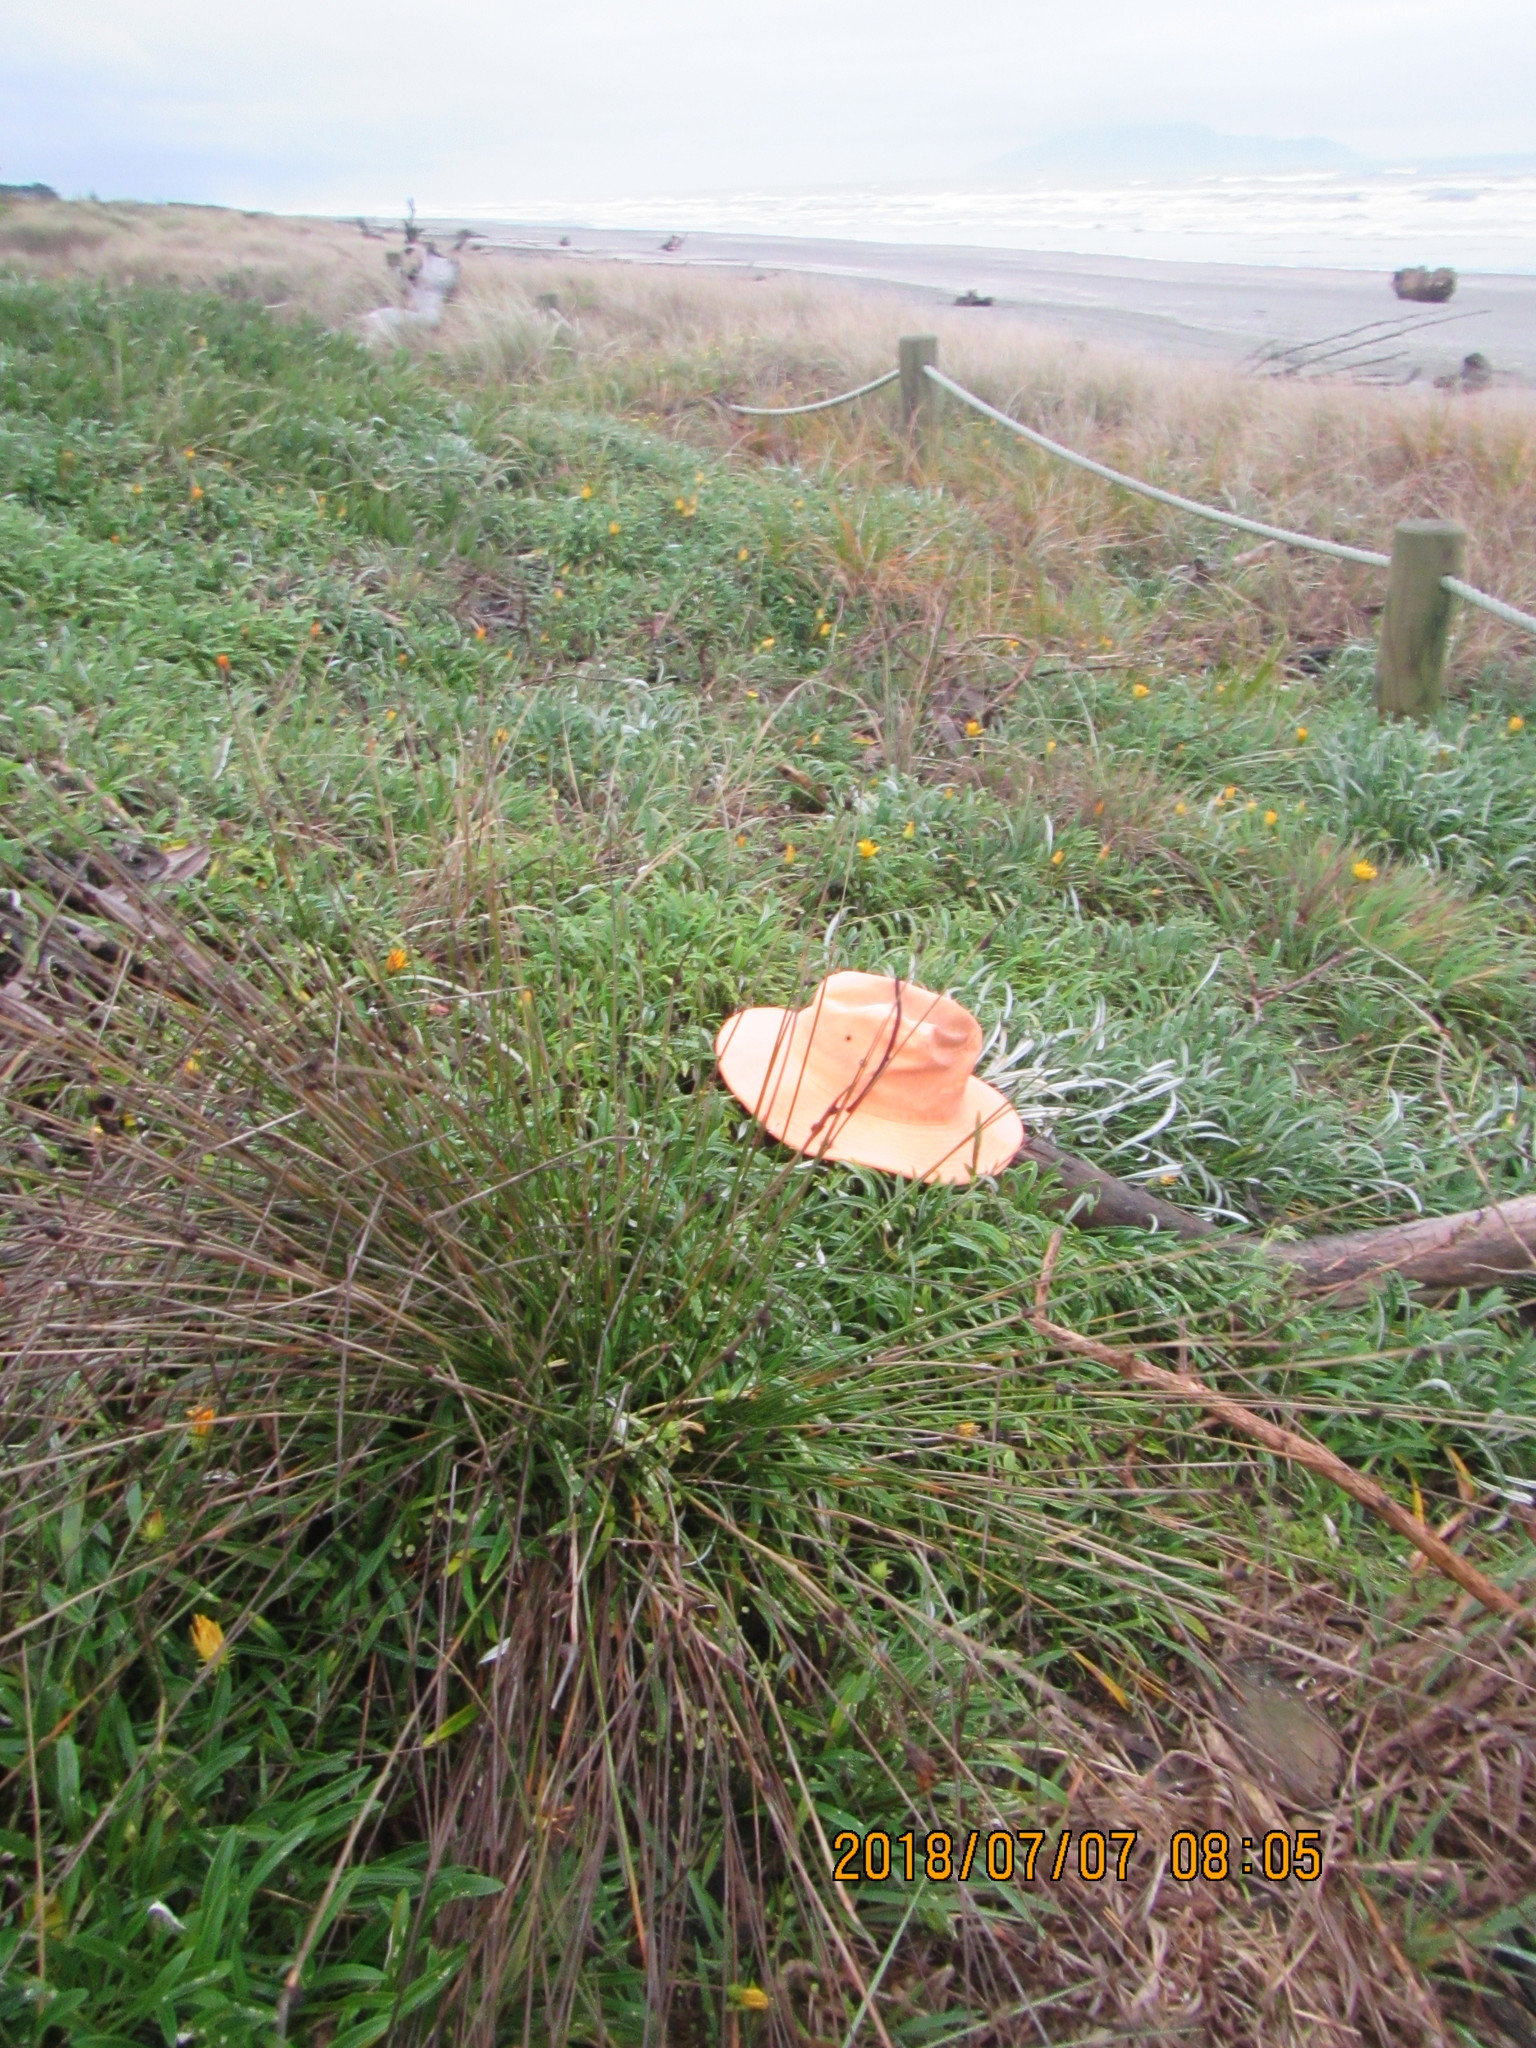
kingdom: Animalia
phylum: Mollusca
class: Gastropoda
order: Stylommatophora
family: Helicidae
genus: Cornu
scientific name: Cornu aspersum
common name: Brown garden snail
